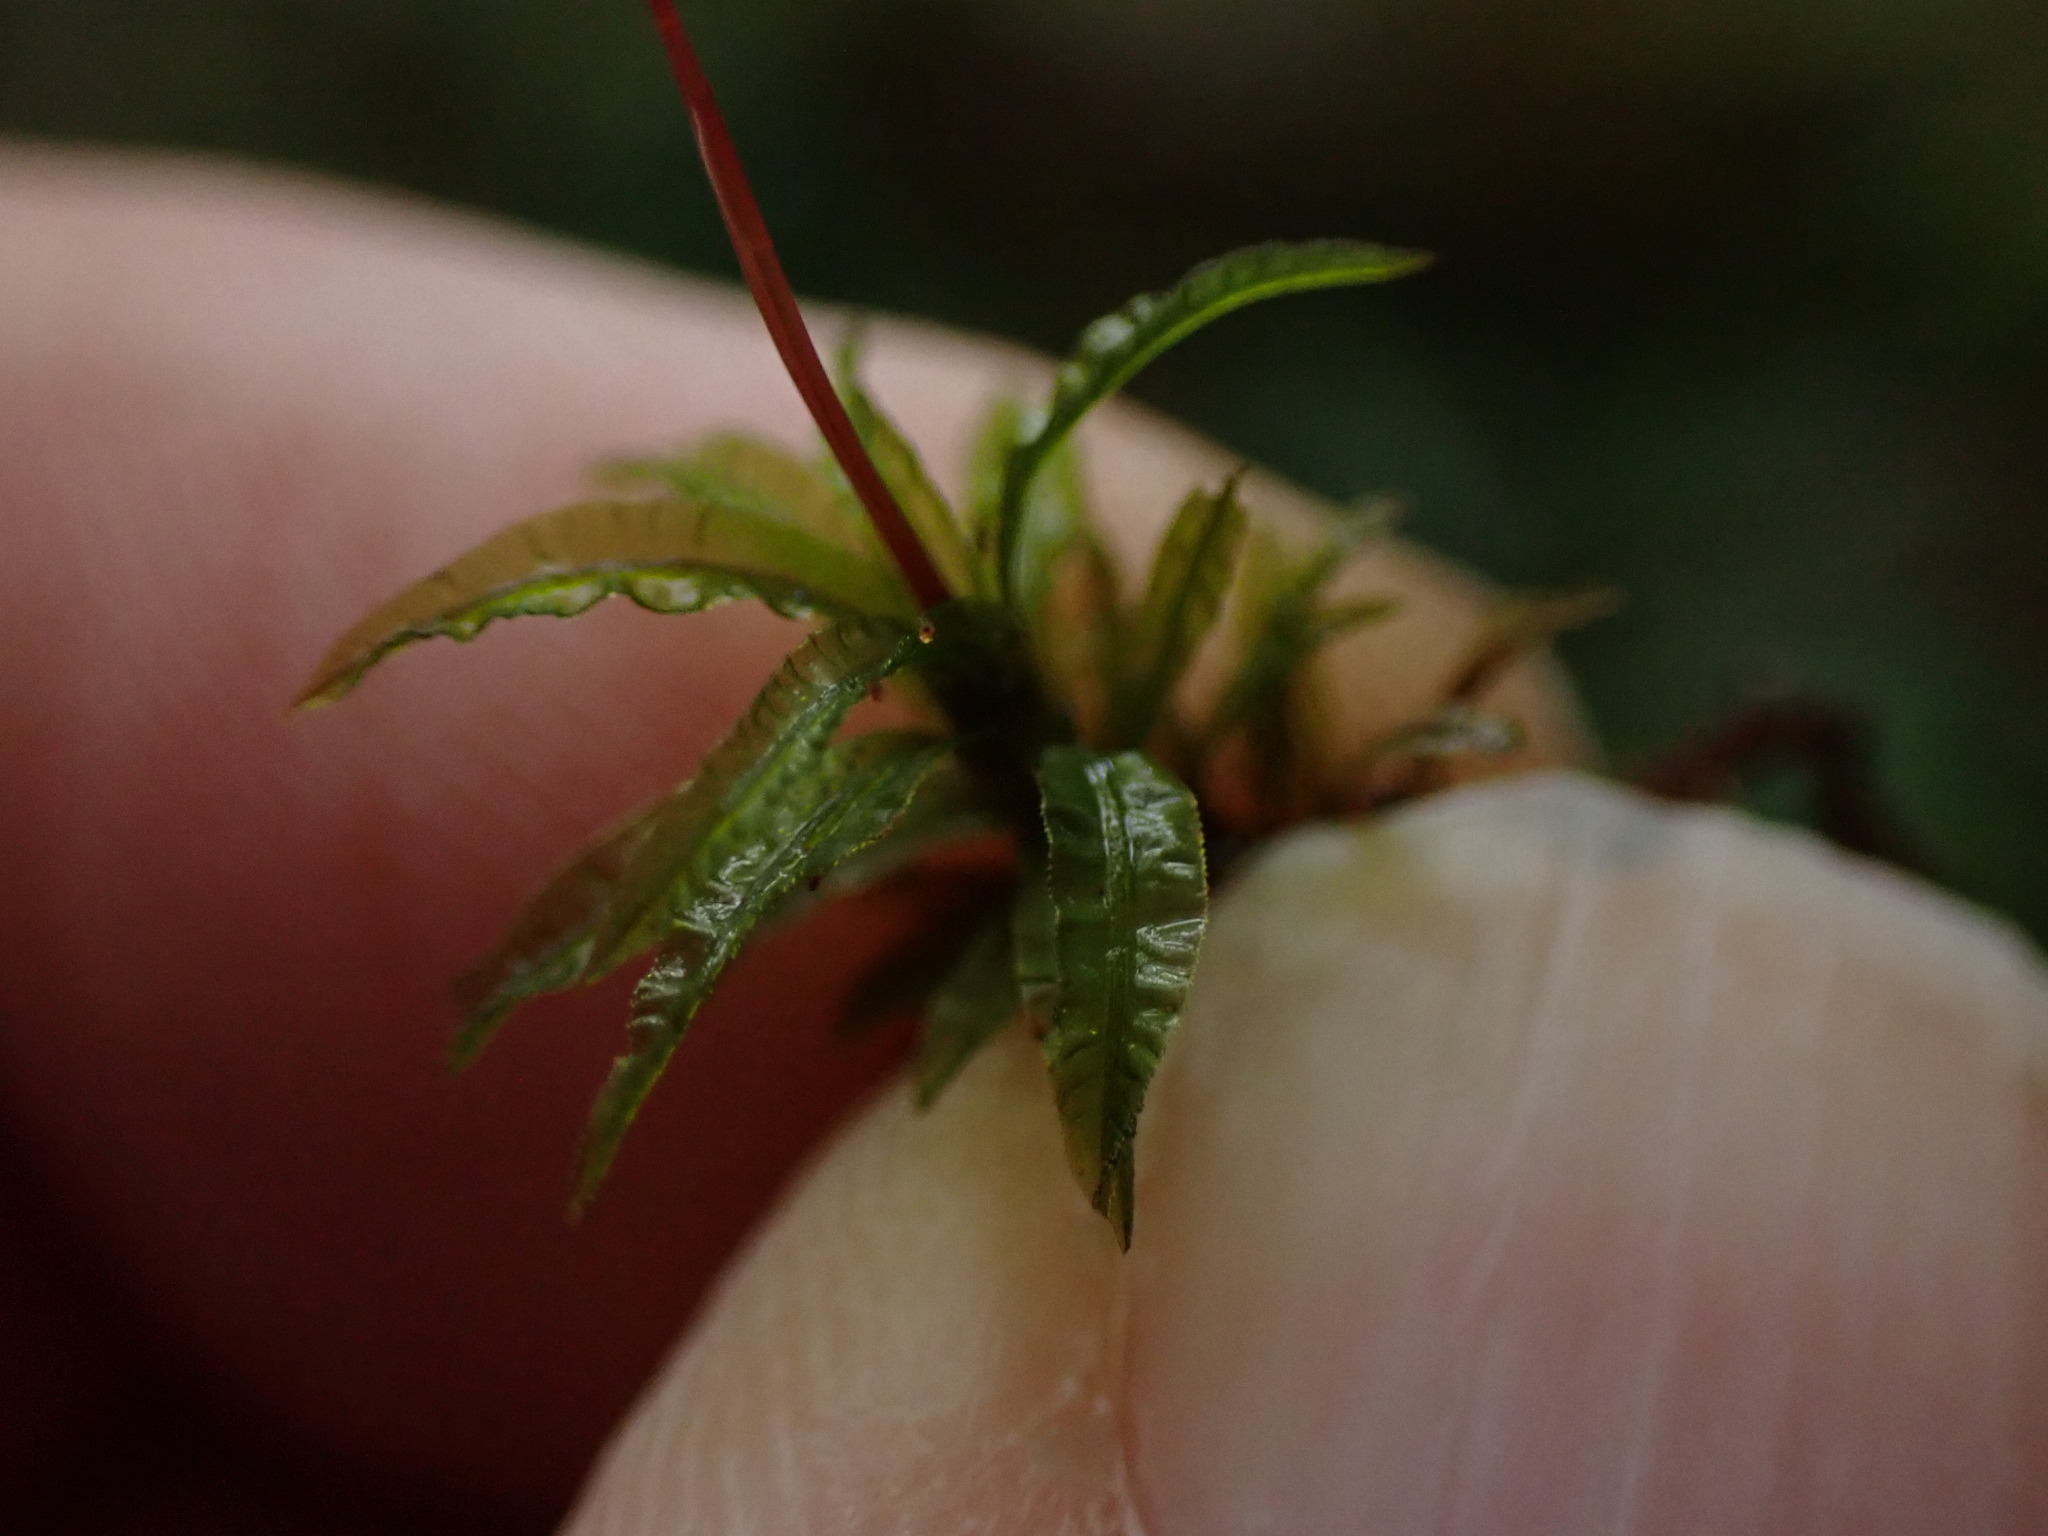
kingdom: Plantae
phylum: Bryophyta
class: Polytrichopsida
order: Polytrichales
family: Polytrichaceae
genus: Atrichum
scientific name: Atrichum undulatum
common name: Common smoothcap
